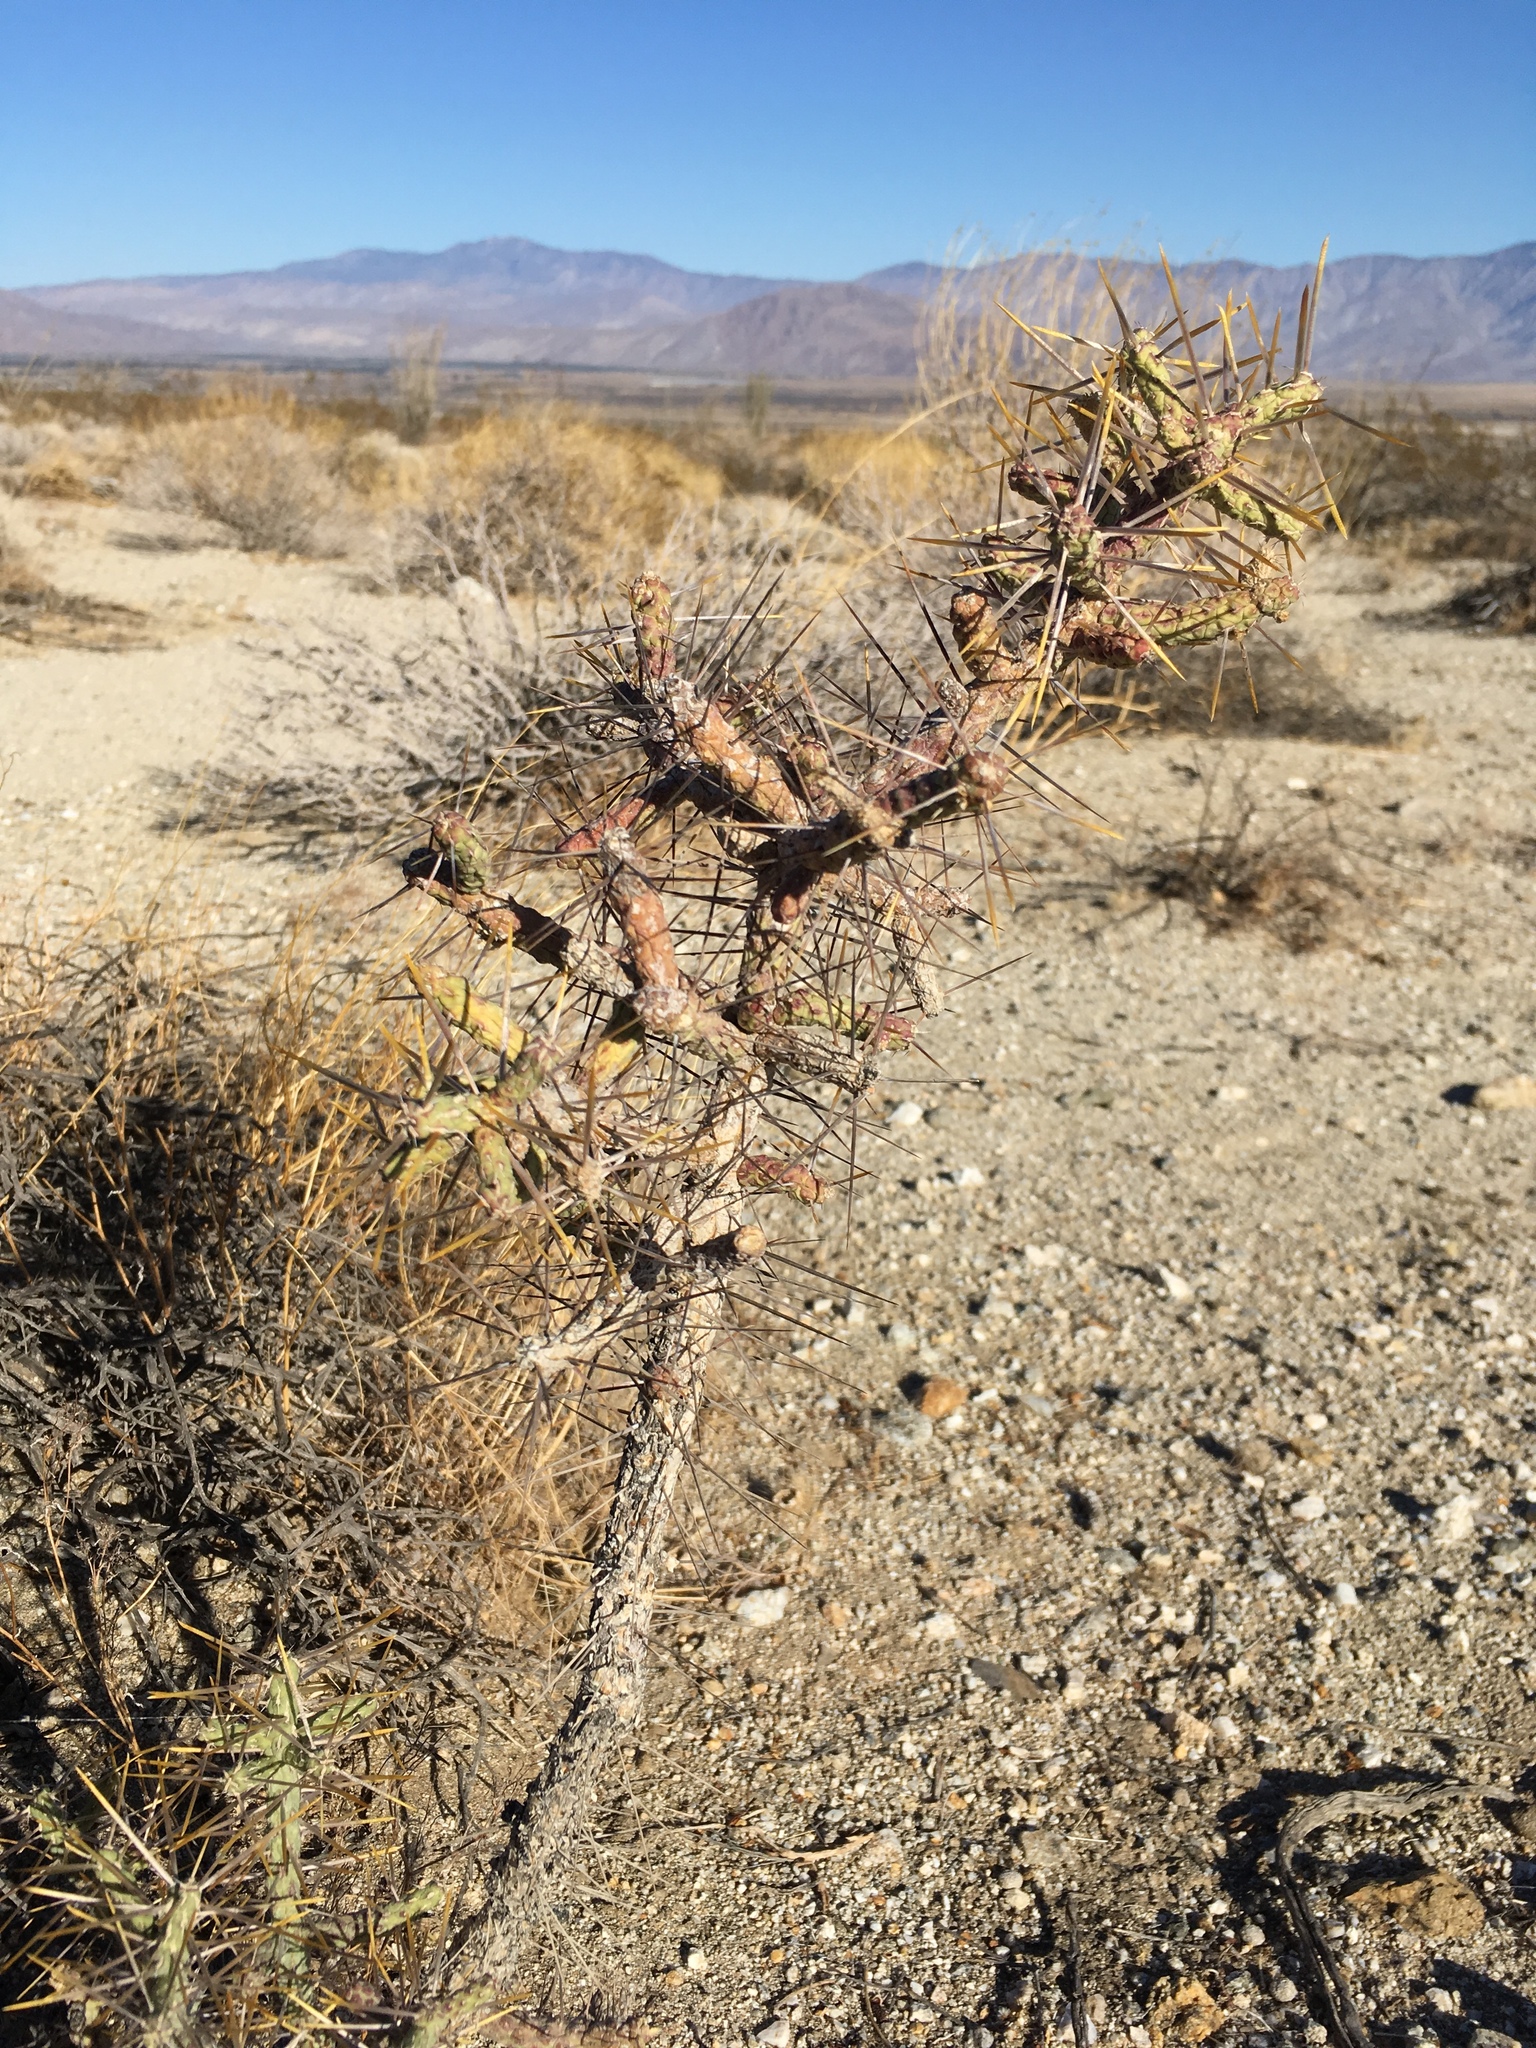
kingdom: Plantae
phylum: Tracheophyta
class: Magnoliopsida
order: Caryophyllales
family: Cactaceae
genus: Cylindropuntia
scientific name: Cylindropuntia ramosissima
